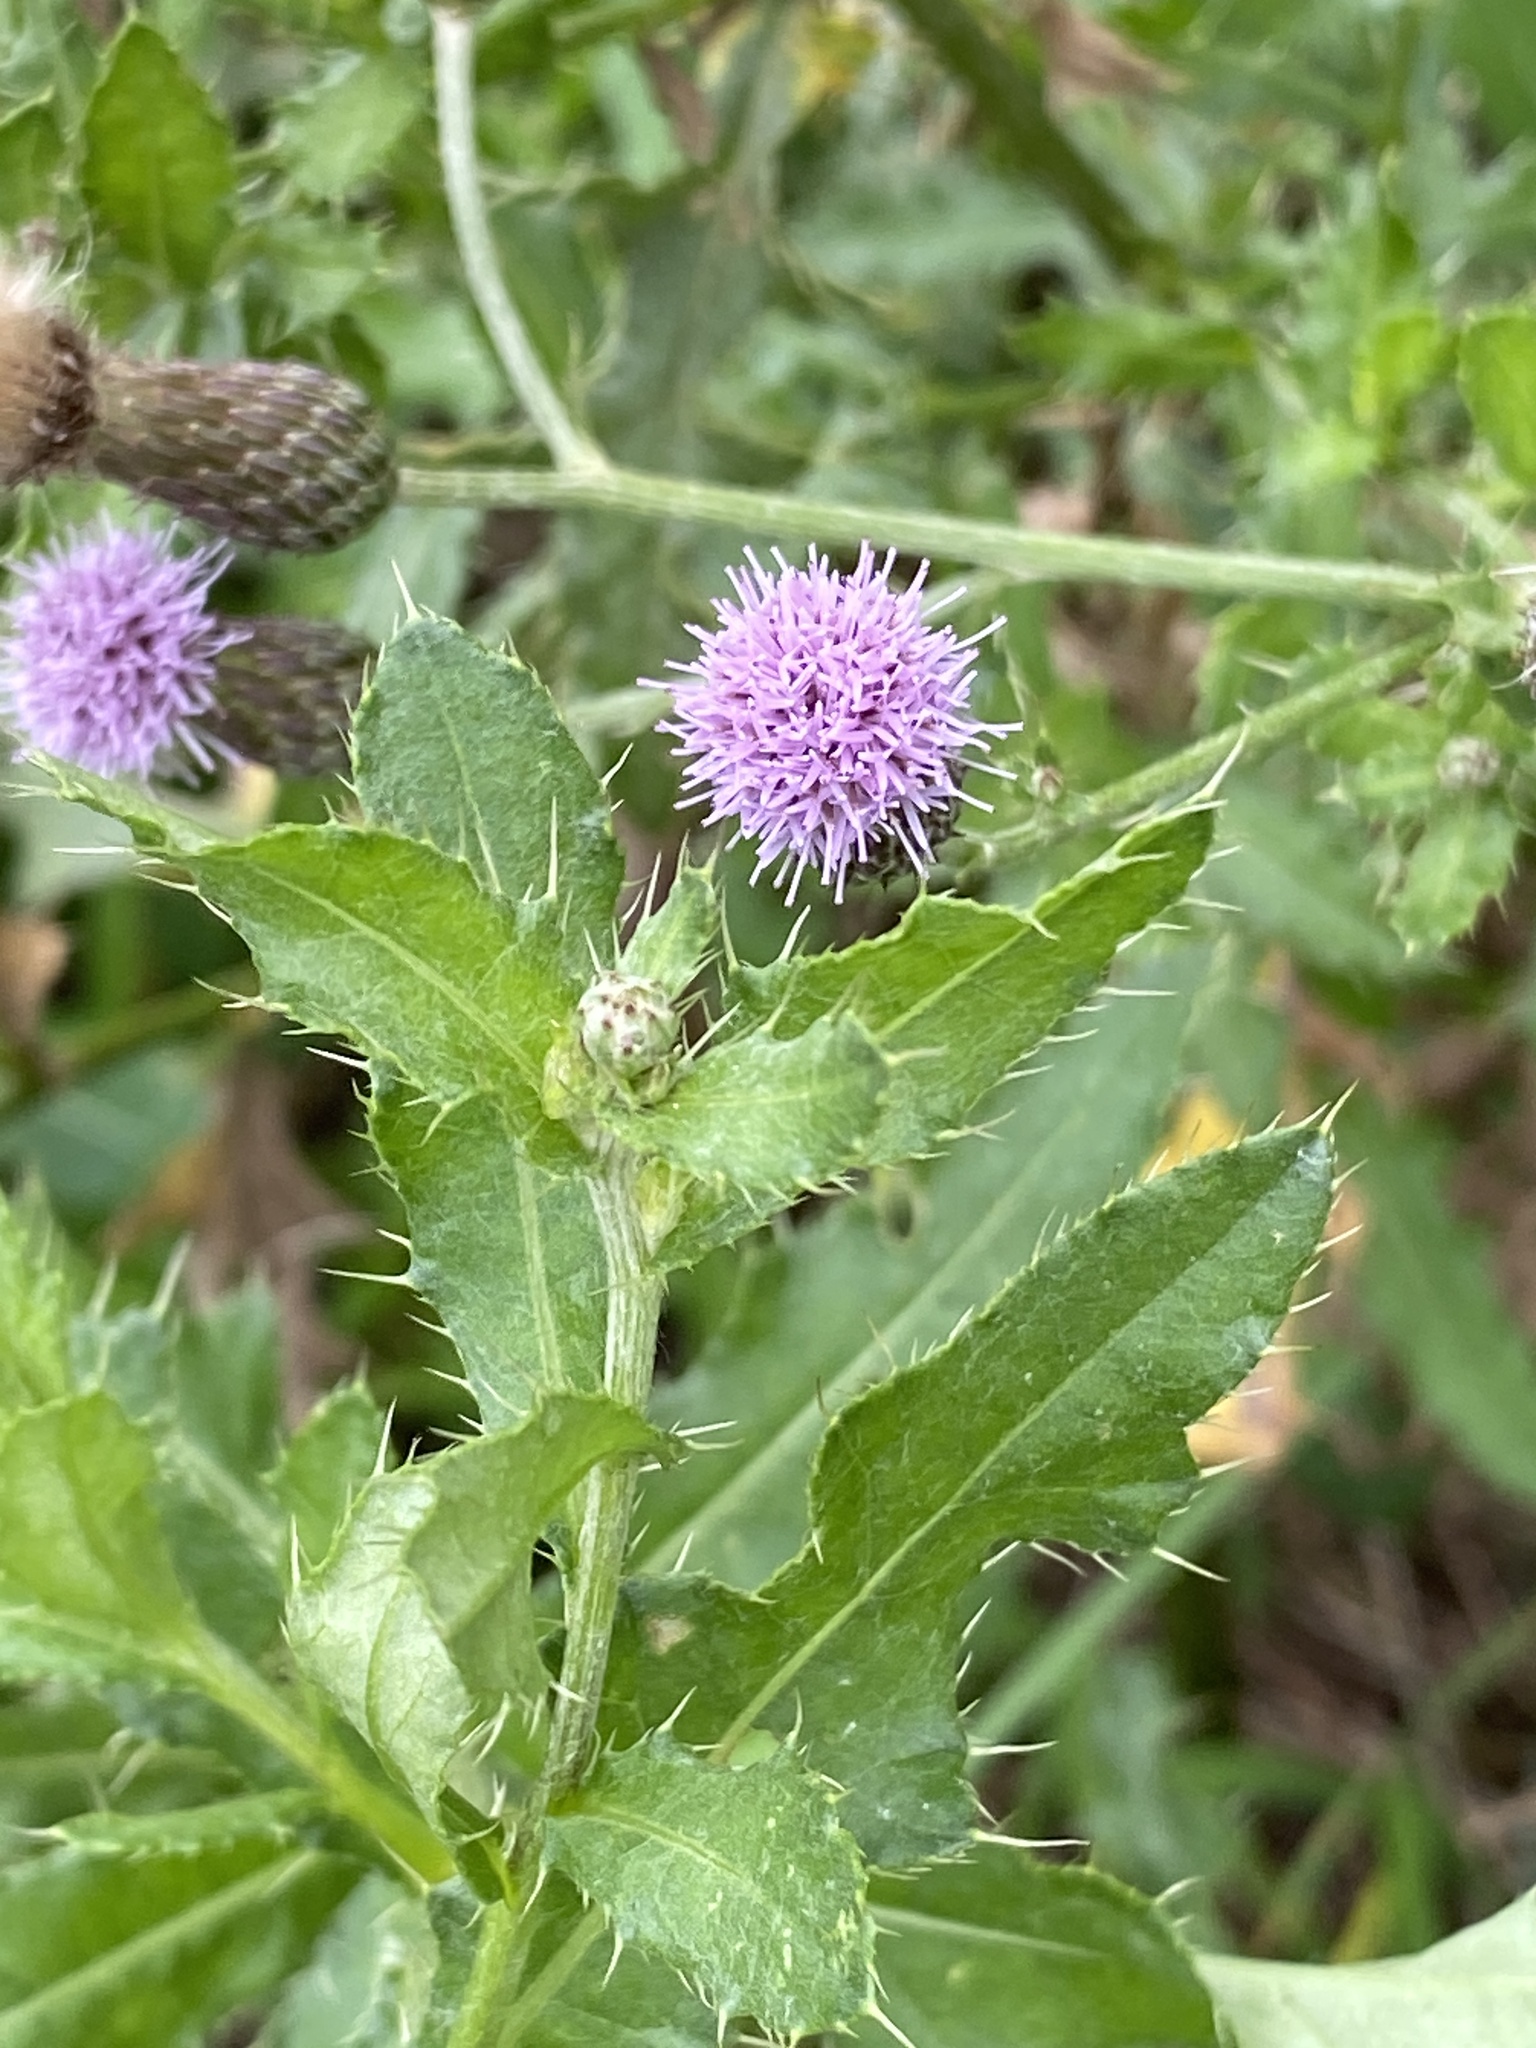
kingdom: Plantae
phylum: Tracheophyta
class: Magnoliopsida
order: Asterales
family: Asteraceae
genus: Cirsium
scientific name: Cirsium arvense
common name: Creeping thistle
